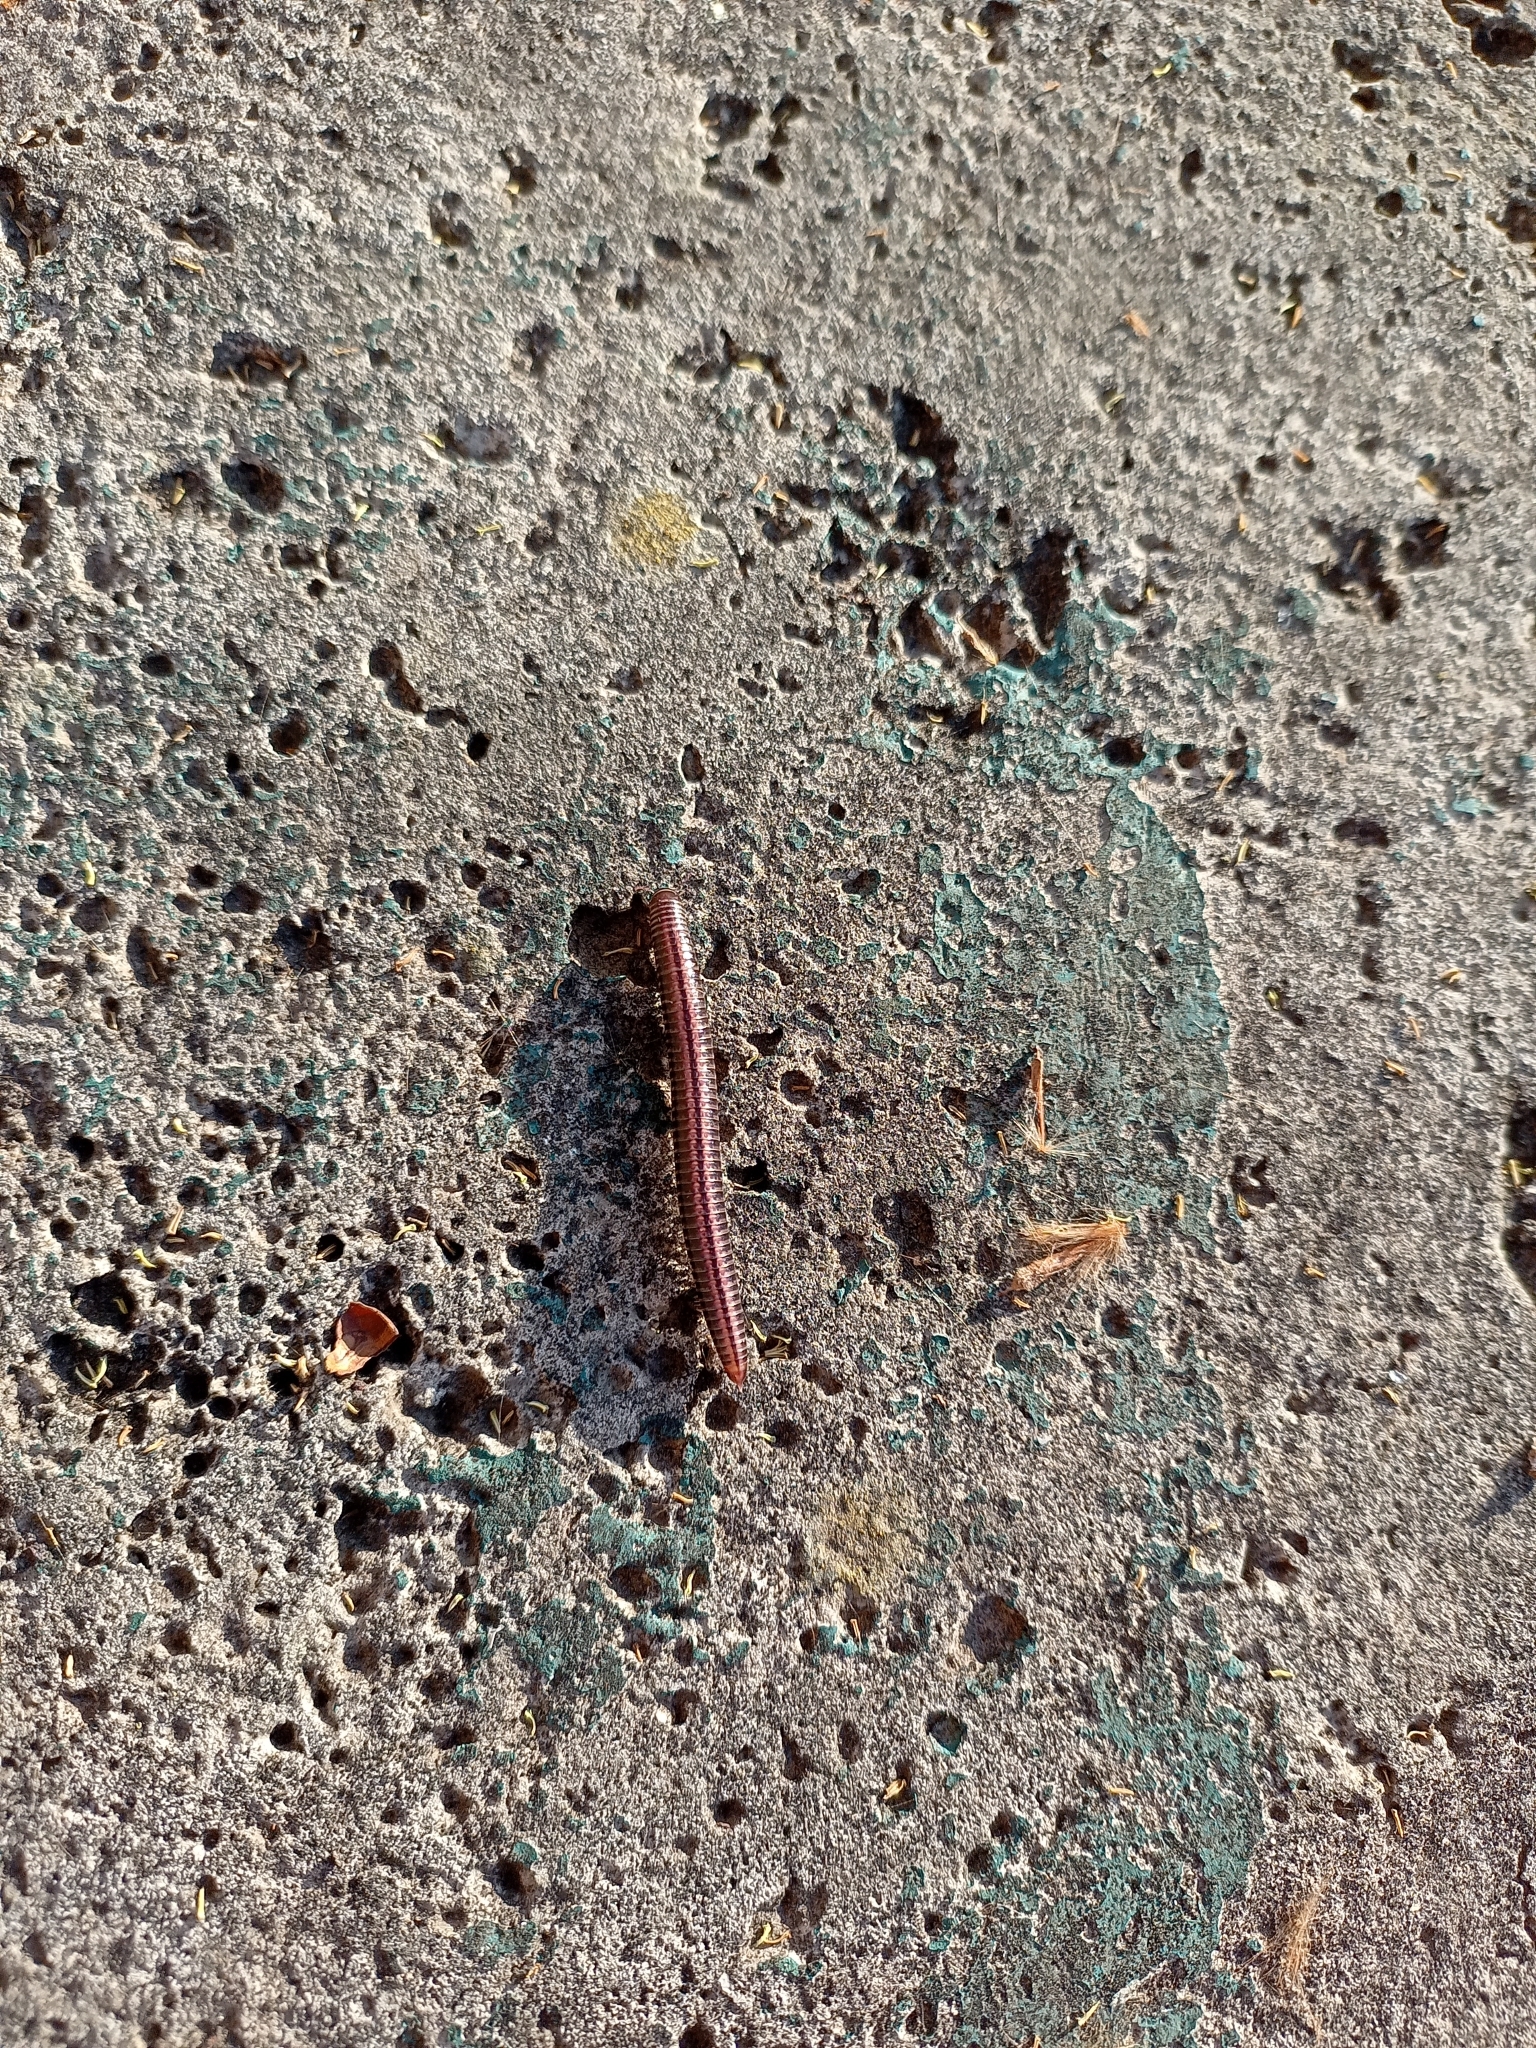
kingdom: Animalia
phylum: Arthropoda
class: Diplopoda
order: Julida
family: Julidae
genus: Ommatoiulus
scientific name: Ommatoiulus sabulosus
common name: Striped millipede
